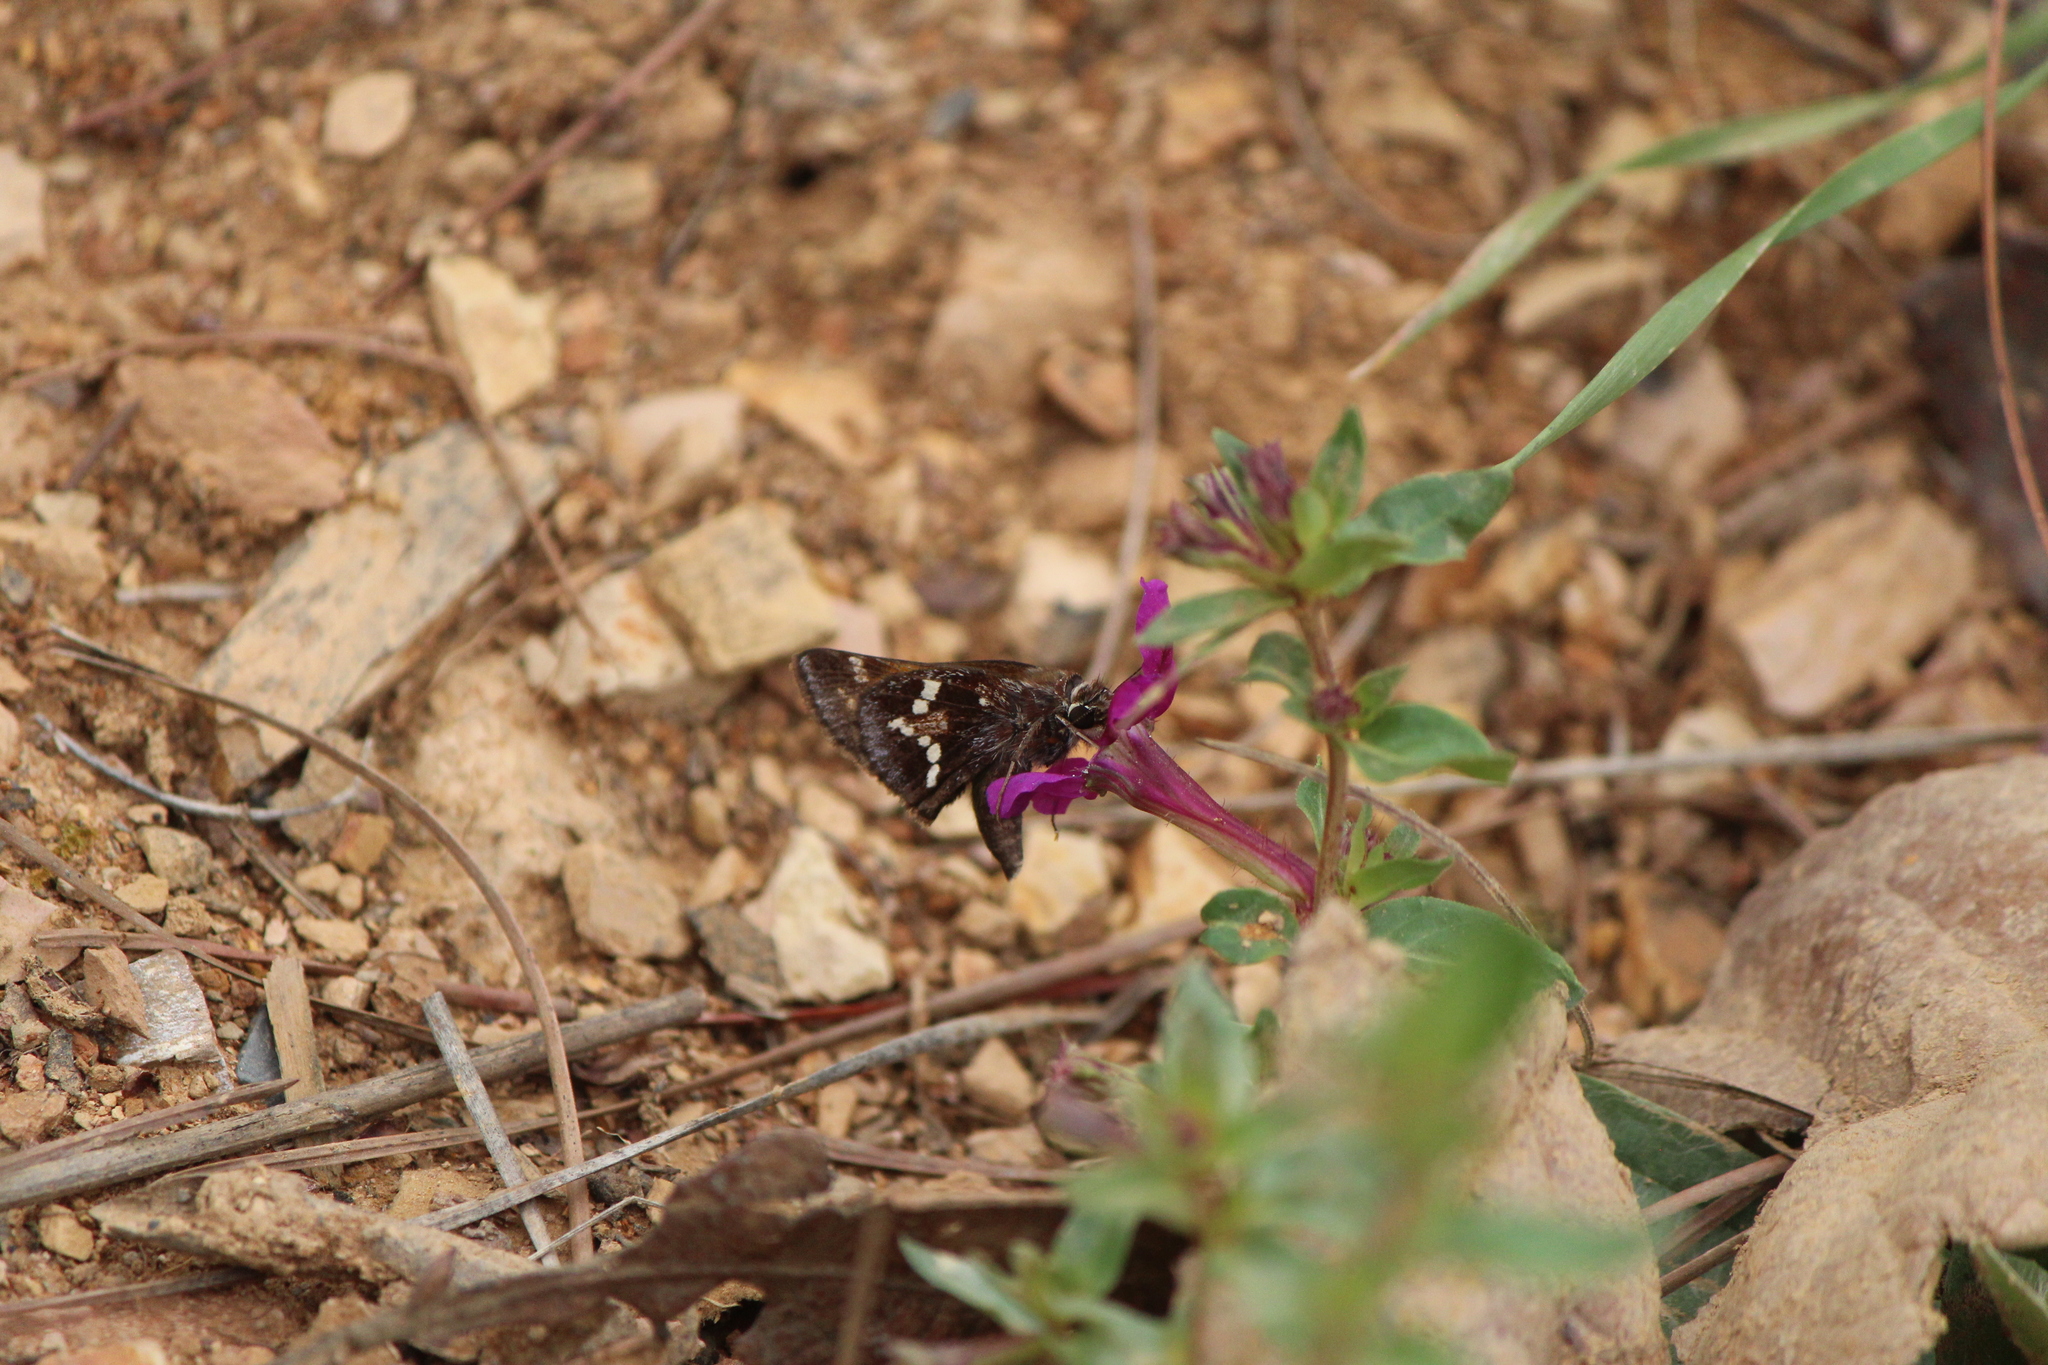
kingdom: Animalia
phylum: Arthropoda
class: Insecta
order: Lepidoptera
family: Hesperiidae
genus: Lon
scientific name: Lon monticola
